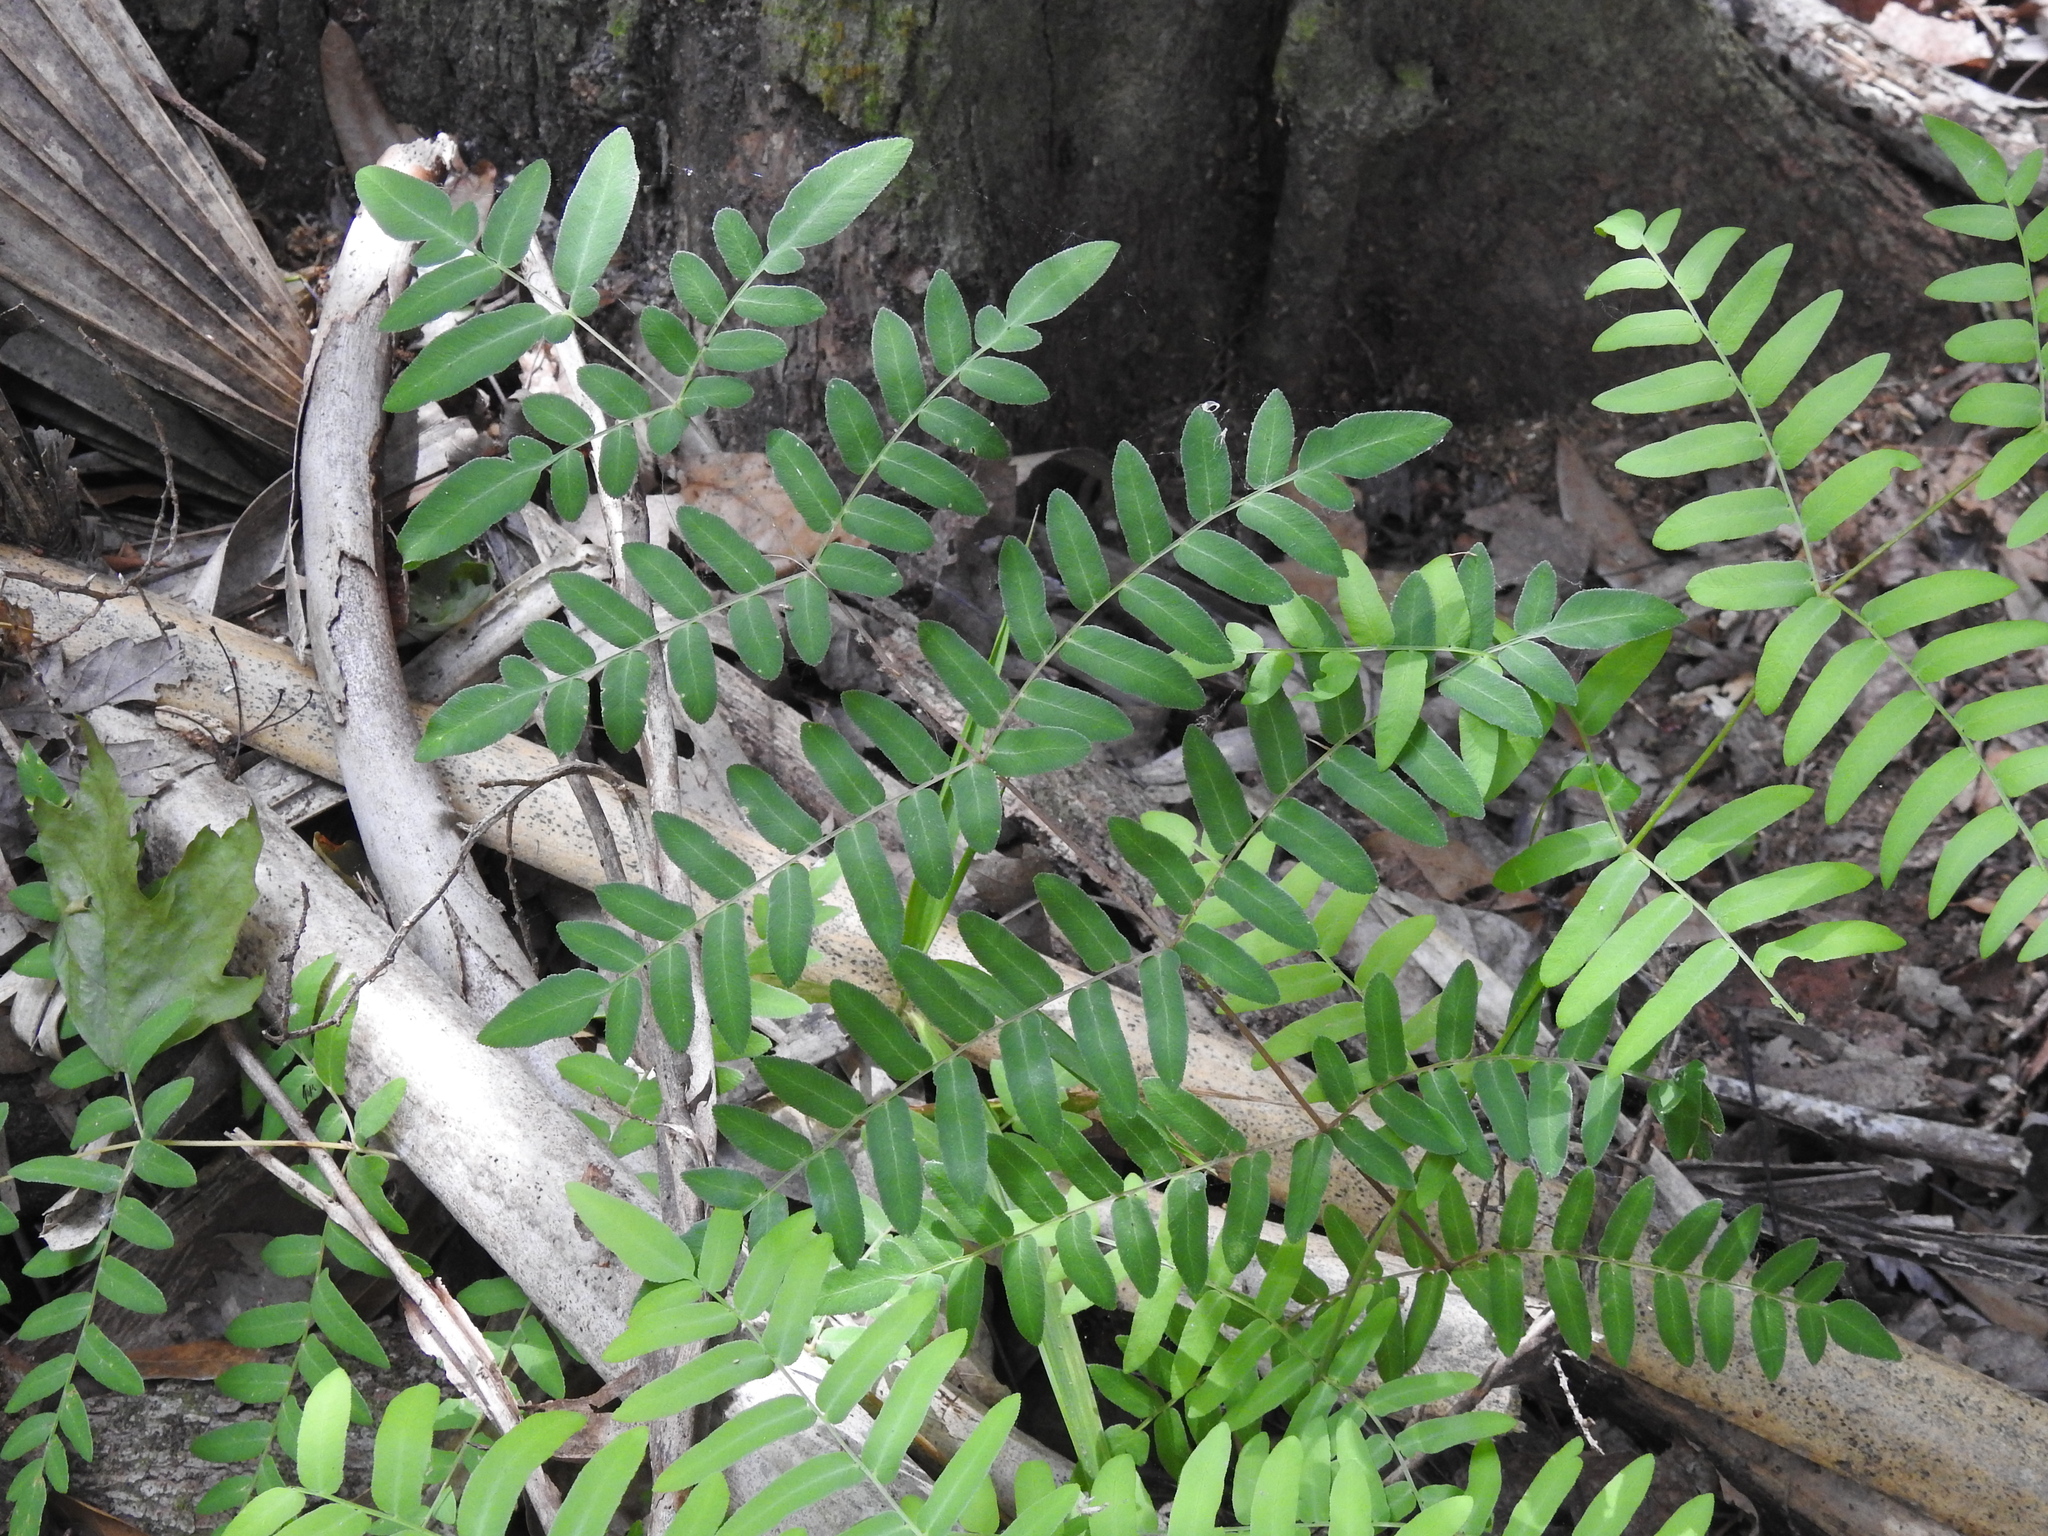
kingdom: Plantae
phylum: Tracheophyta
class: Polypodiopsida
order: Osmundales
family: Osmundaceae
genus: Osmunda
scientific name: Osmunda spectabilis
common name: American royal fern
